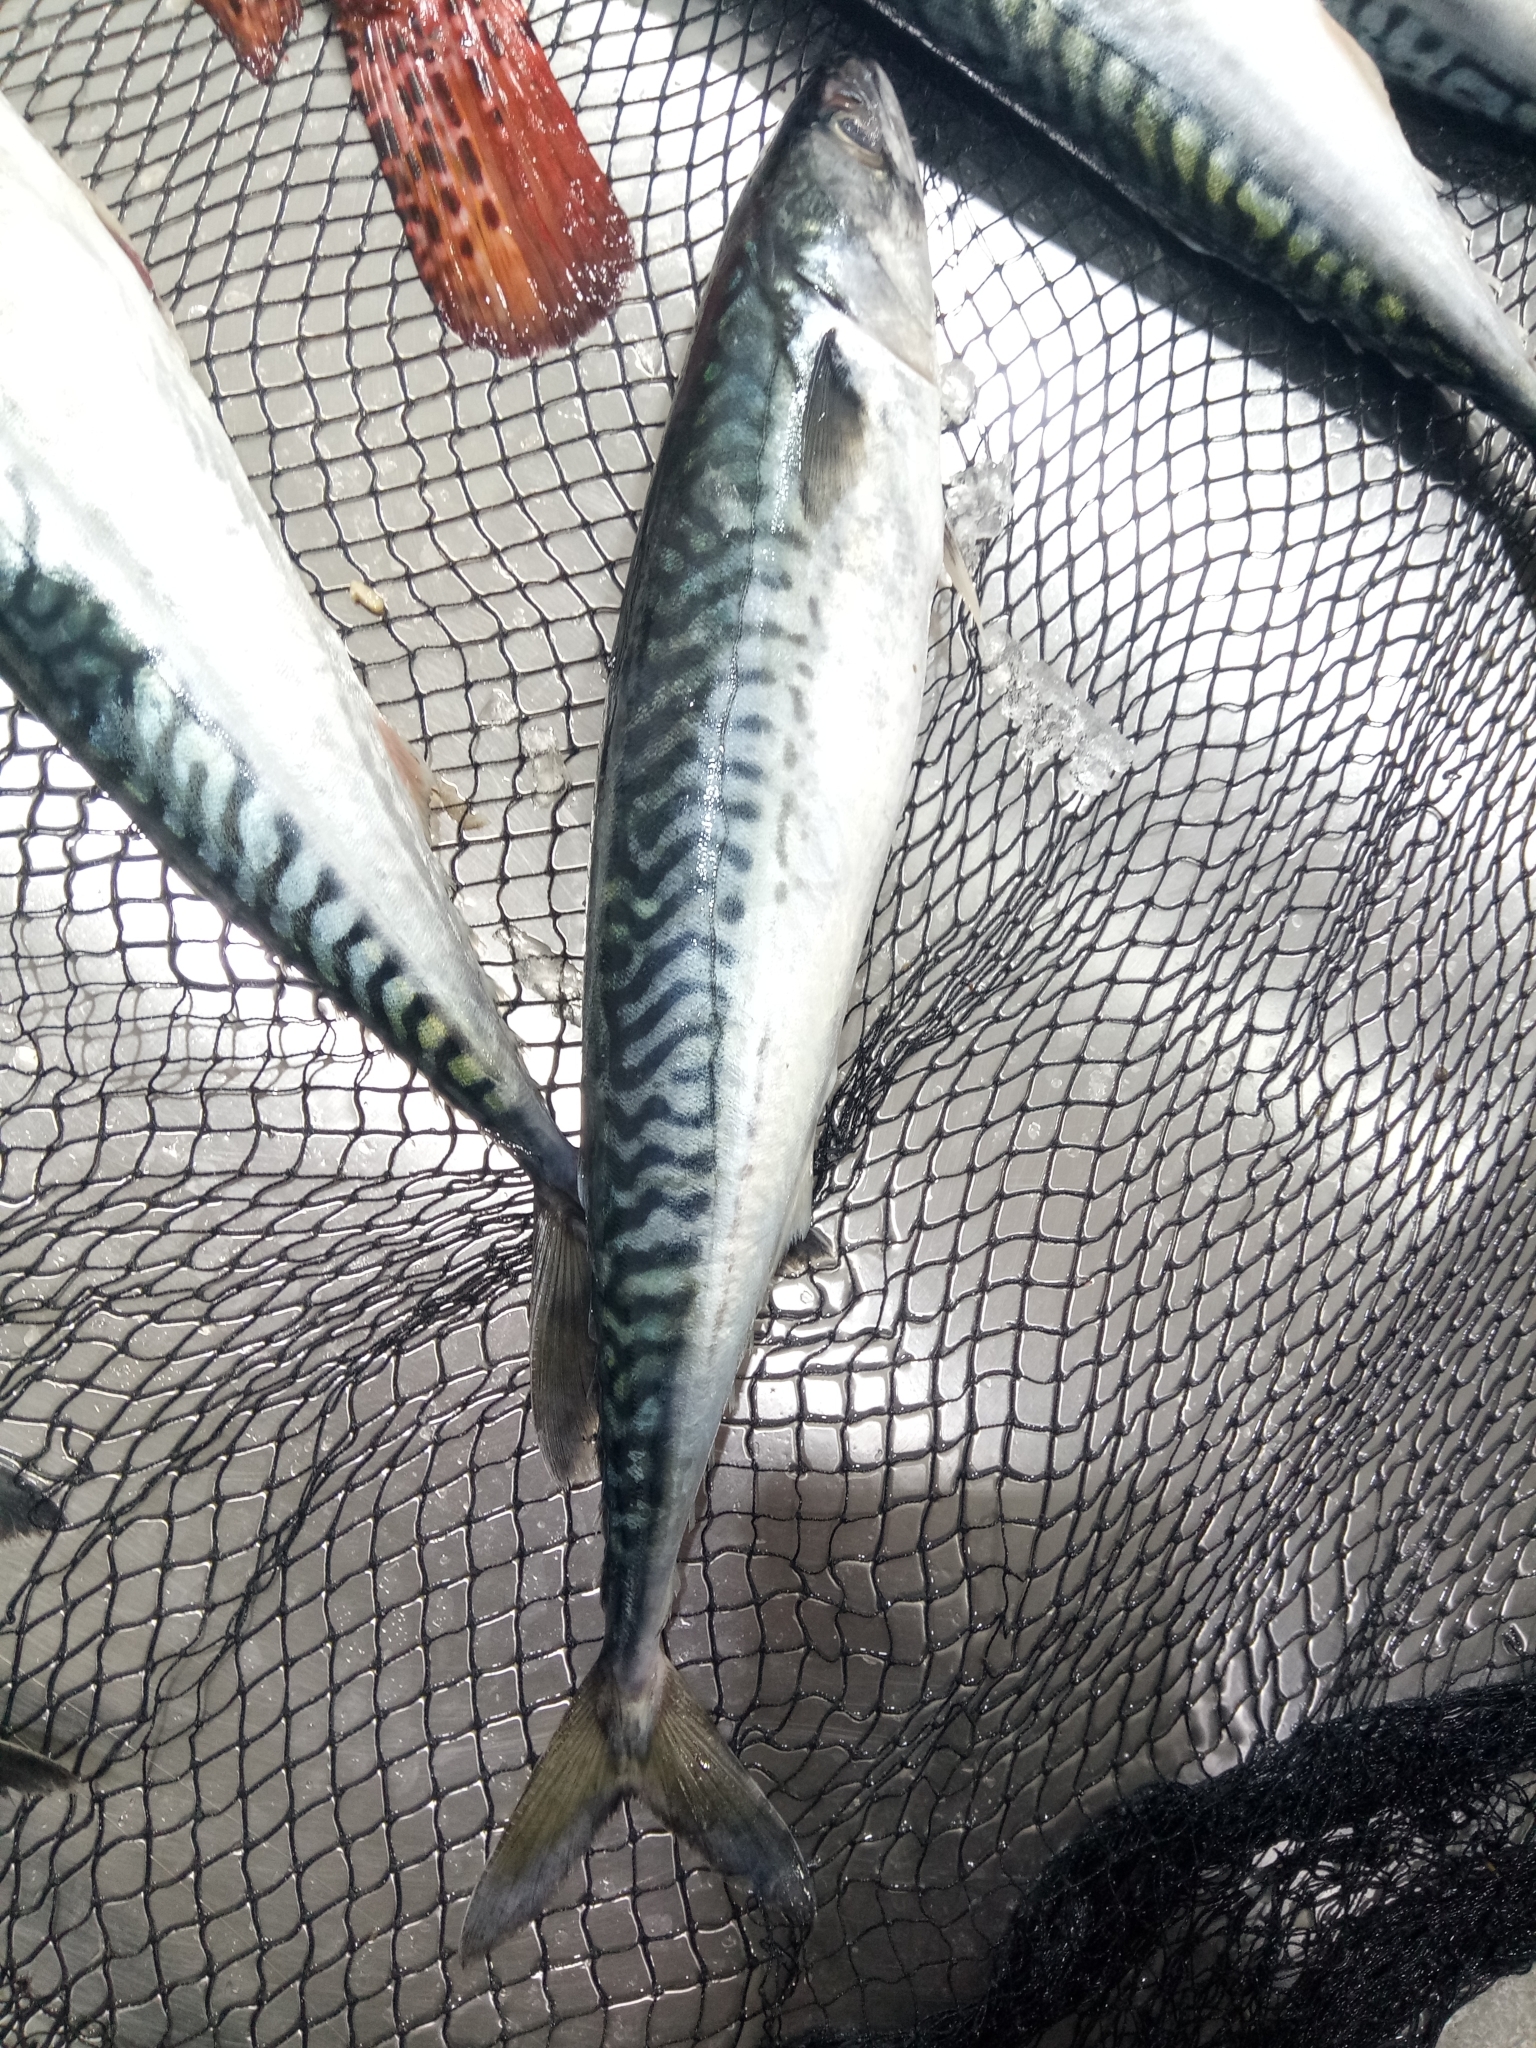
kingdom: Animalia
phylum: Chordata
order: Perciformes
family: Scombridae
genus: Scomber
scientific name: Scomber scombrus
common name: Mackerel
